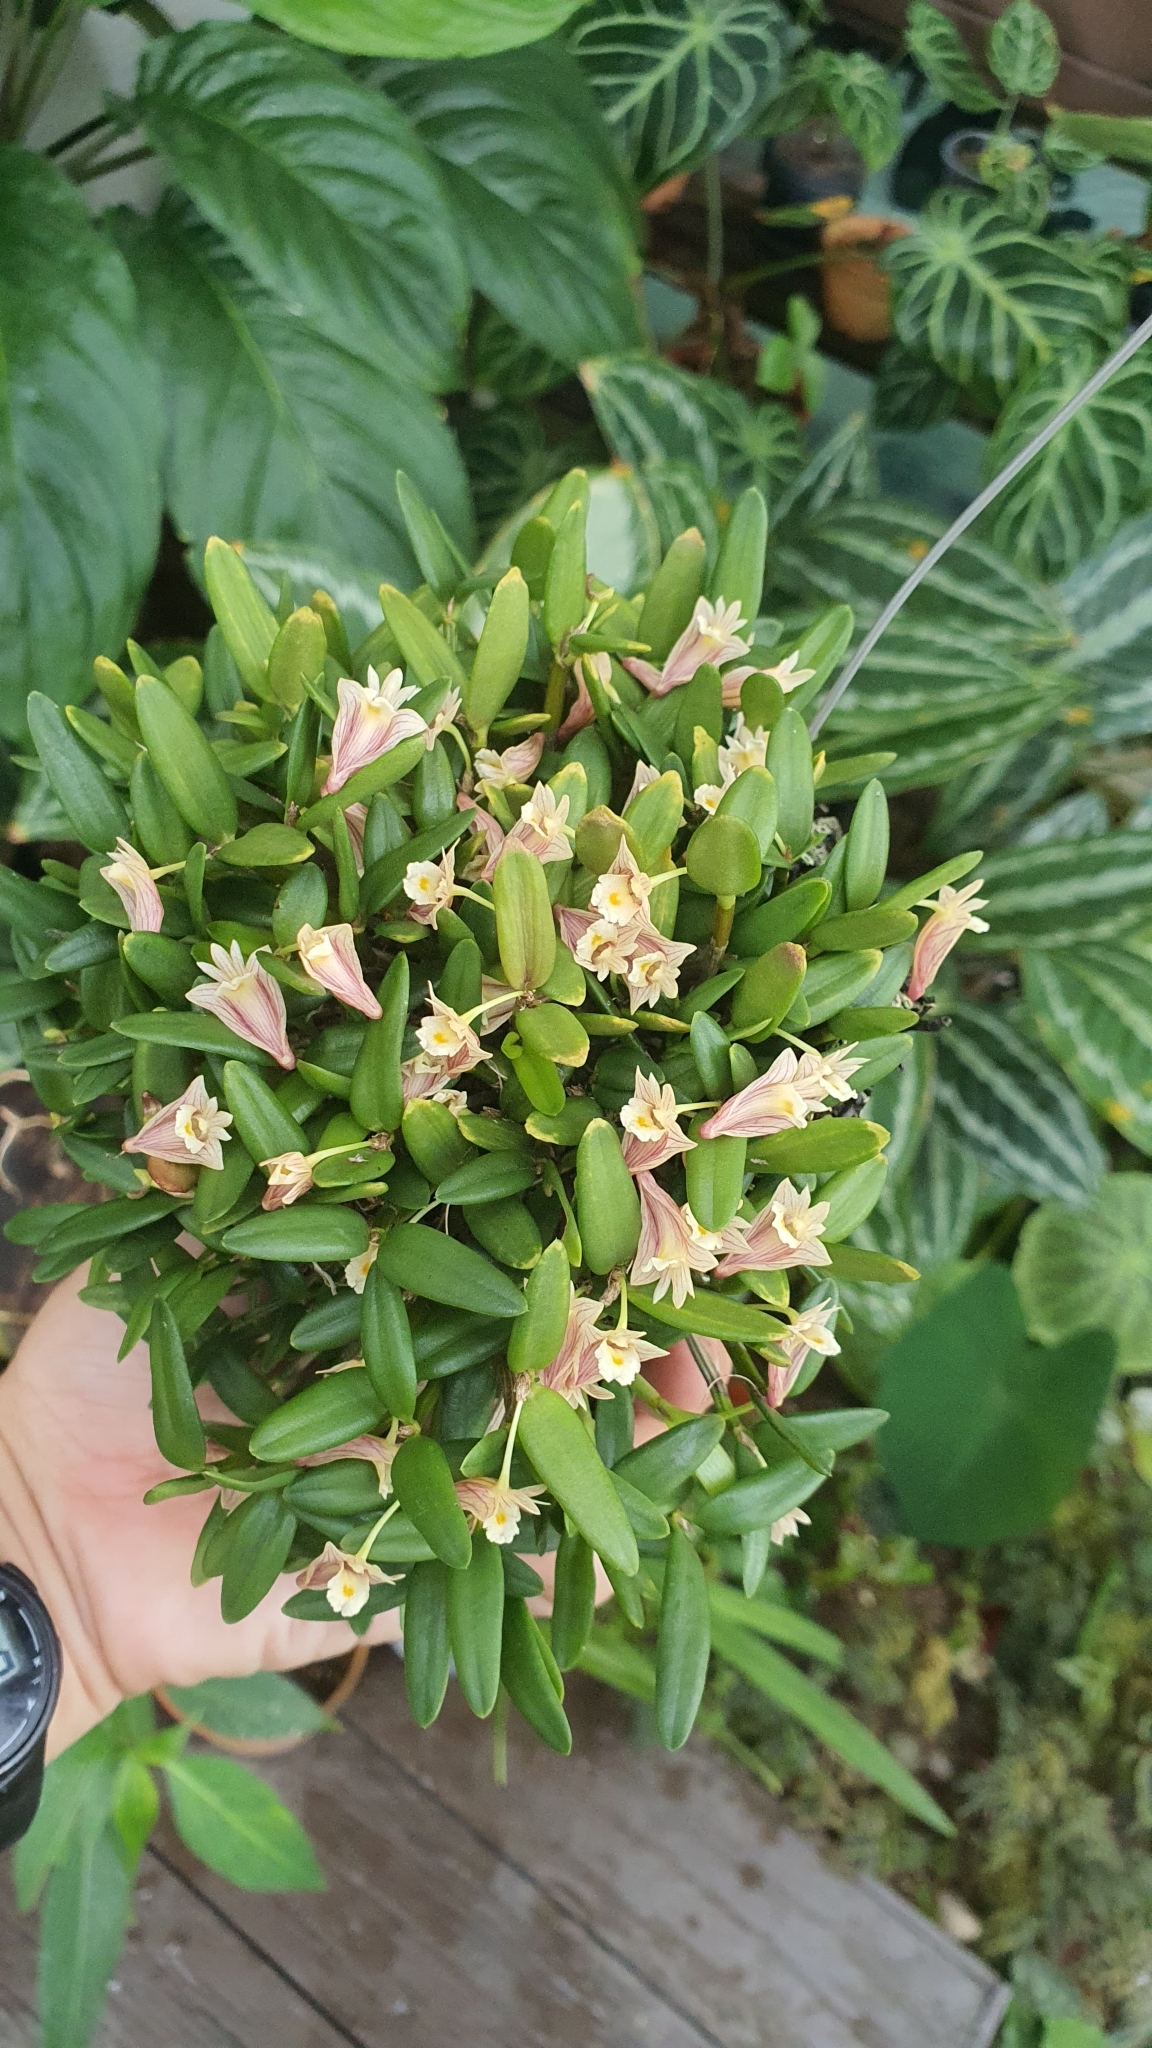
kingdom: Plantae
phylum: Tracheophyta
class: Liliopsida
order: Asparagales
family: Orchidaceae
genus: Dendrobium
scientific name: Dendrobium pachyphyllum
